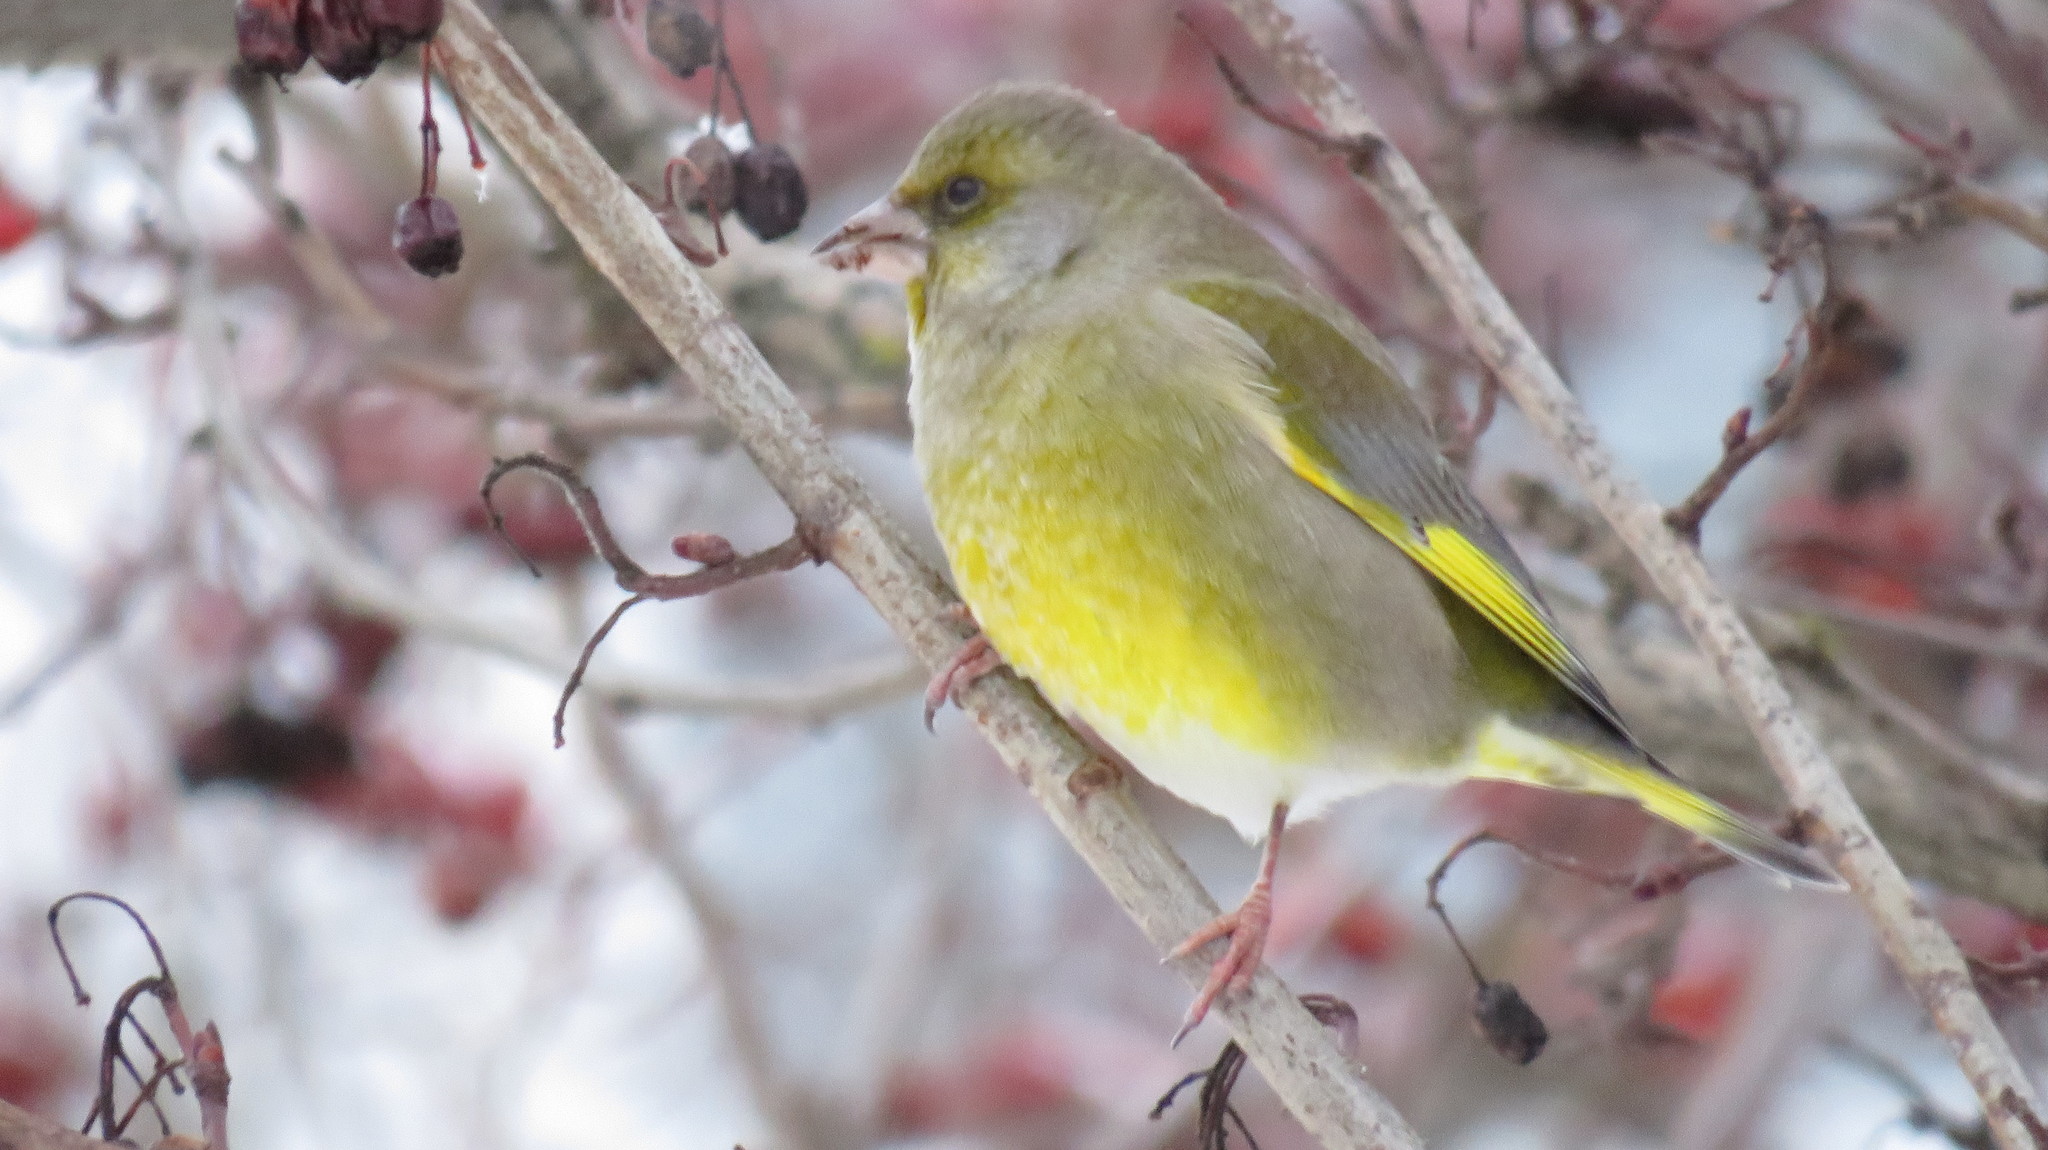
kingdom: Plantae
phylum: Tracheophyta
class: Liliopsida
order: Poales
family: Poaceae
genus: Chloris
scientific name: Chloris chloris
